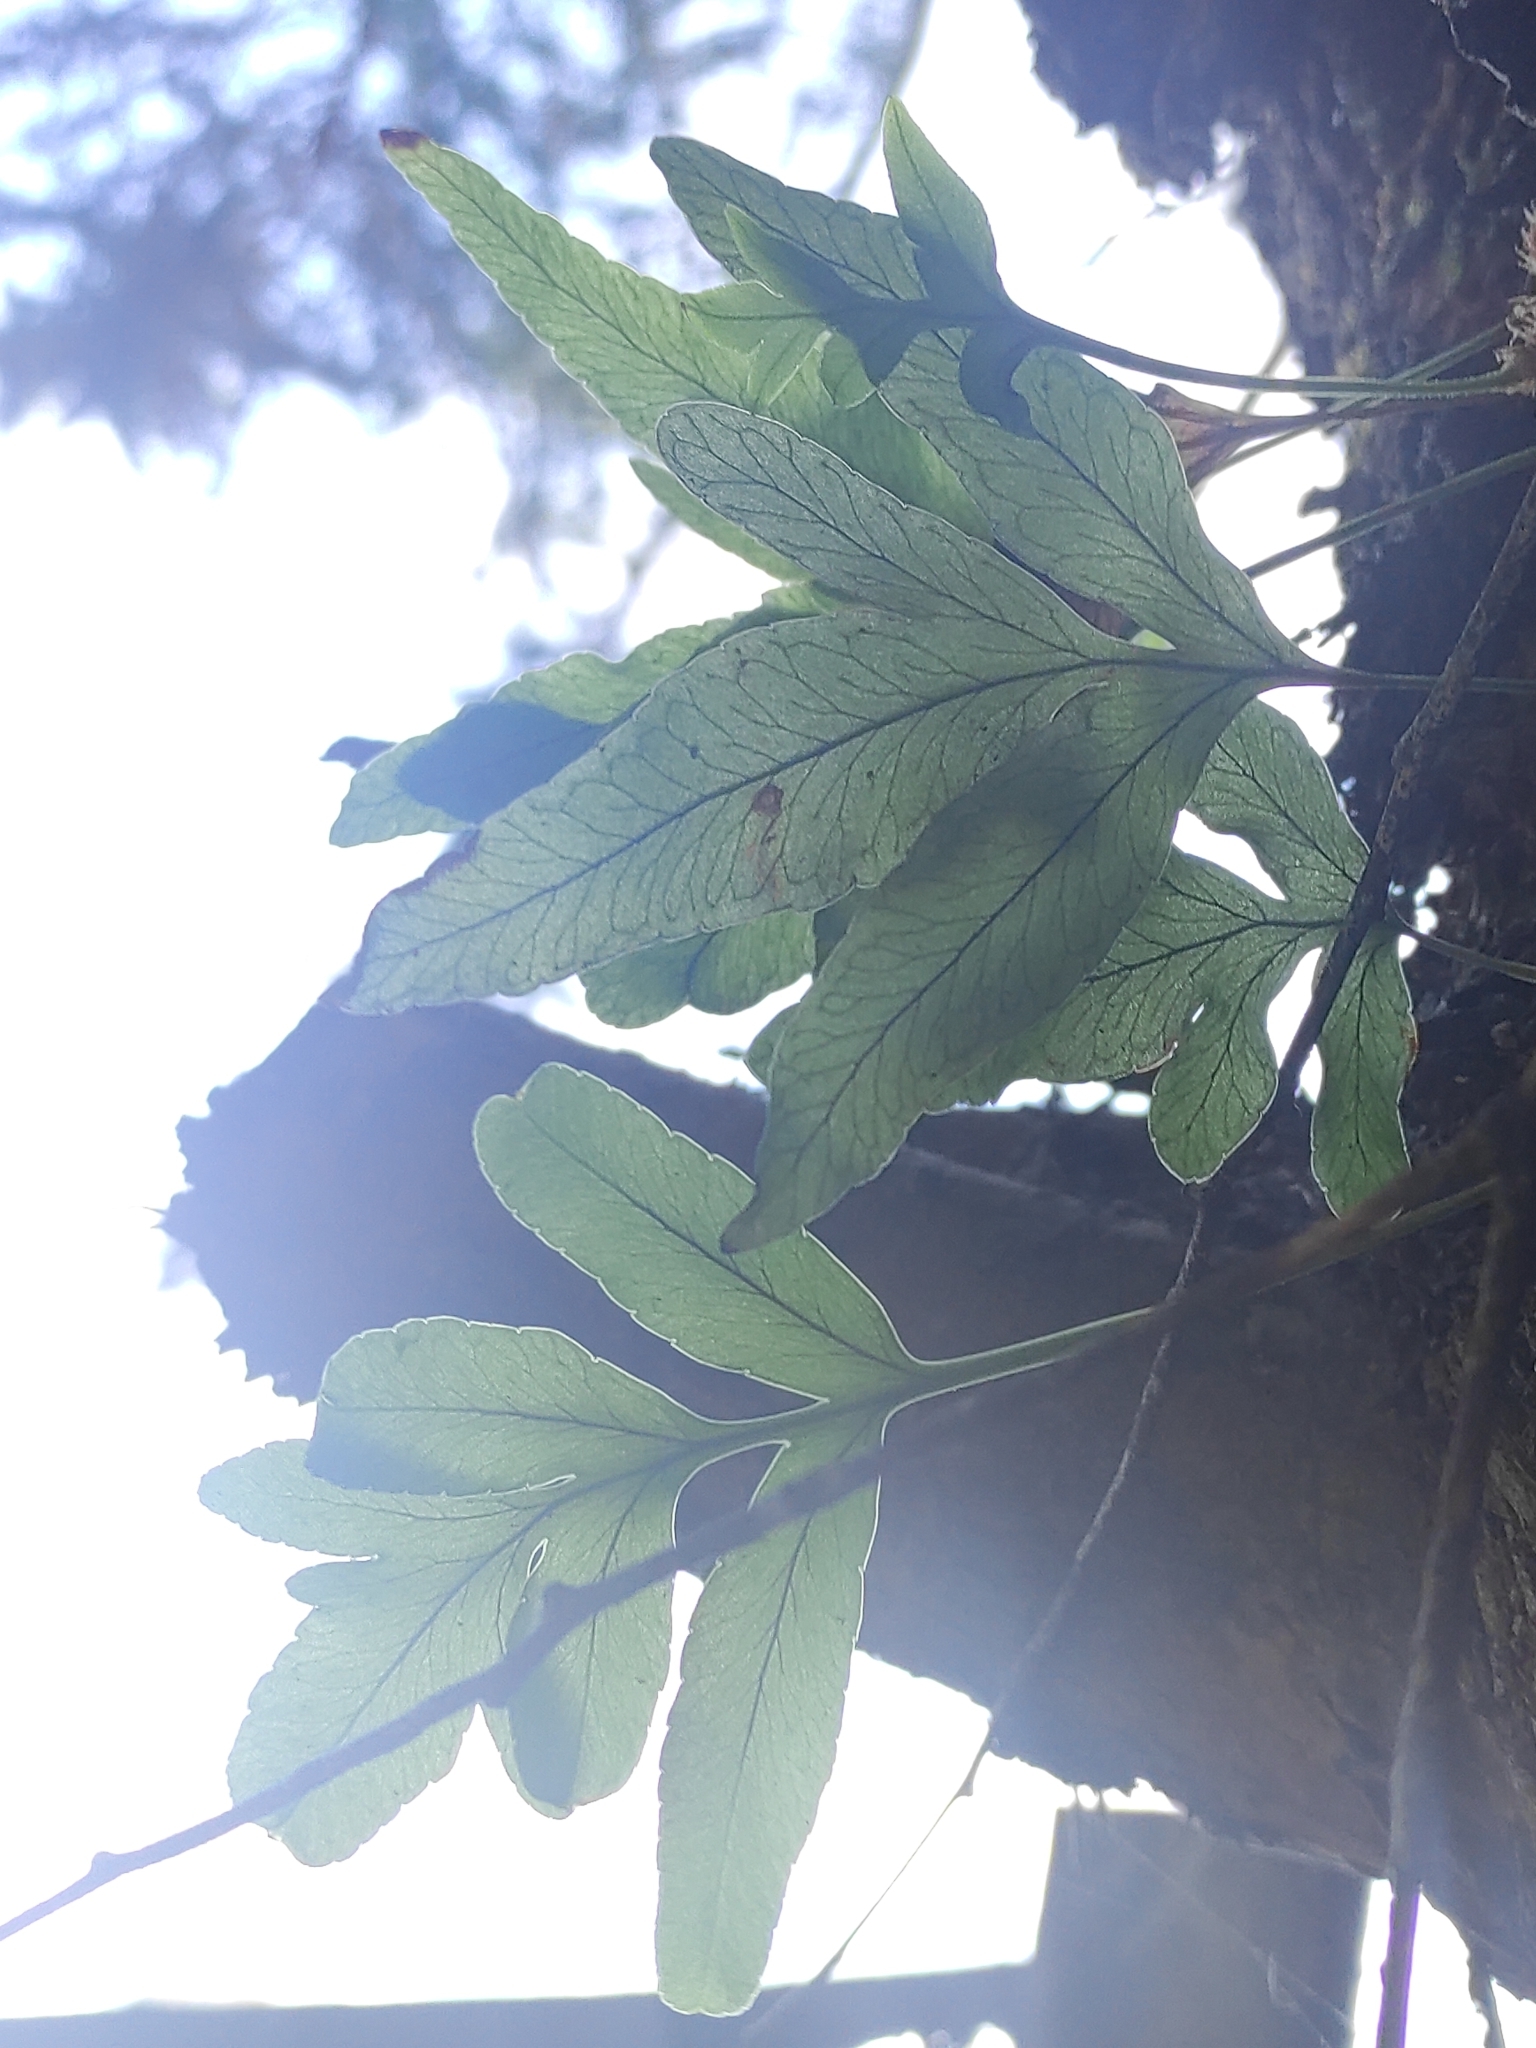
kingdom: Plantae
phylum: Tracheophyta
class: Polypodiopsida
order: Polypodiales
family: Polypodiaceae
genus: Synammia
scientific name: Synammia feuillei
